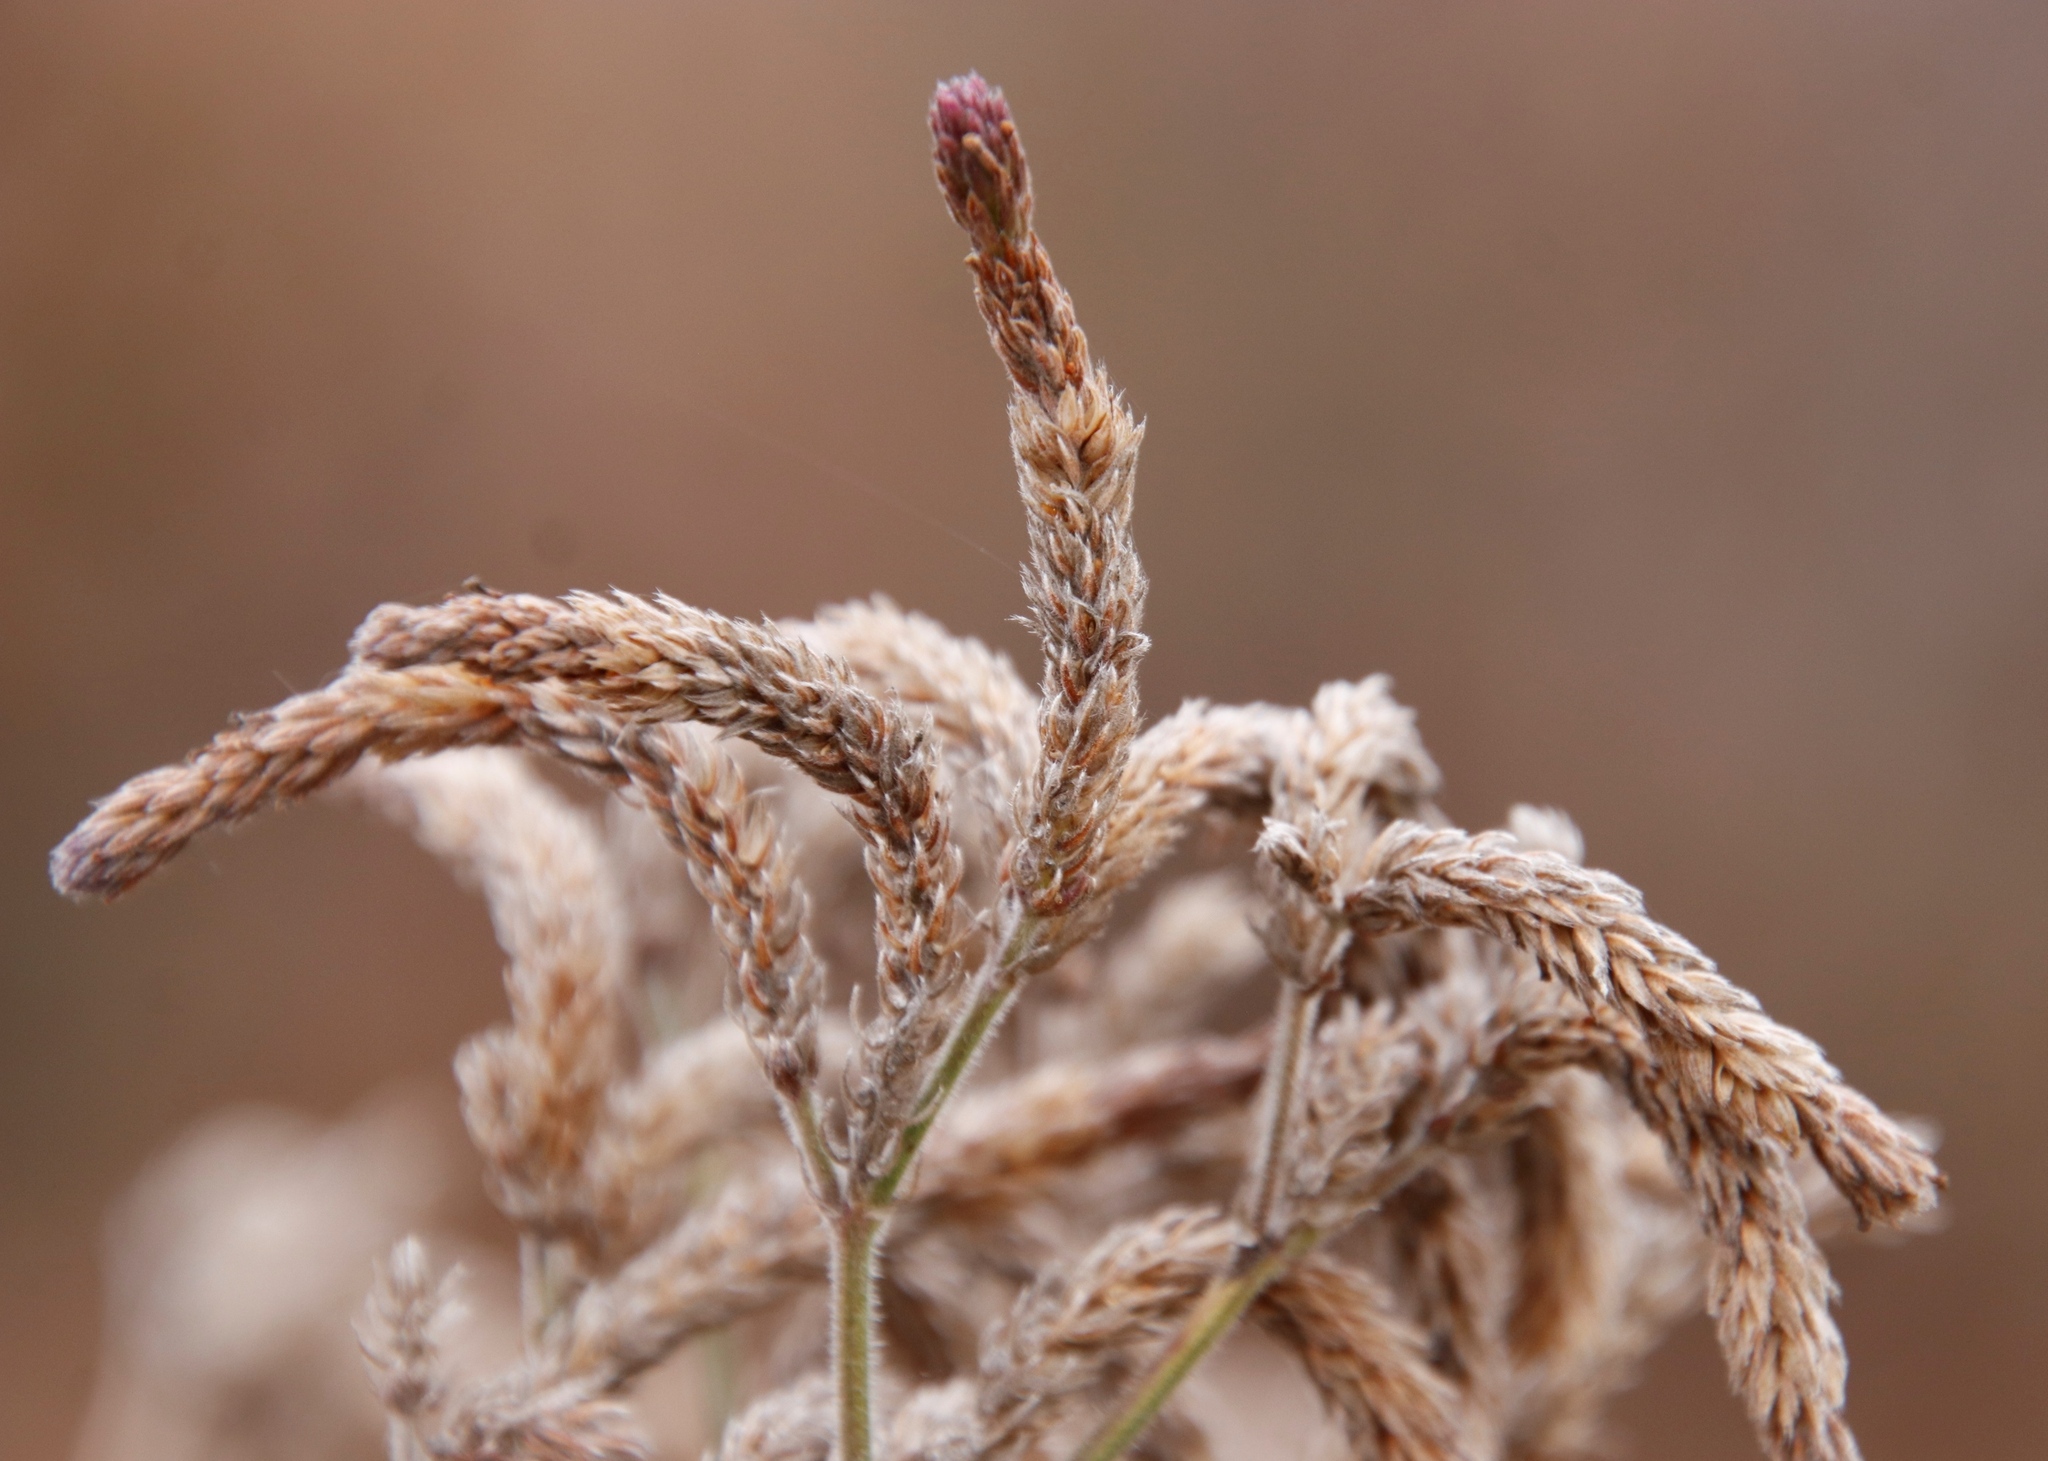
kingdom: Plantae
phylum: Tracheophyta
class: Magnoliopsida
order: Lamiales
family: Verbenaceae
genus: Verbena
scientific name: Verbena bonariensis
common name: Purpletop vervain
